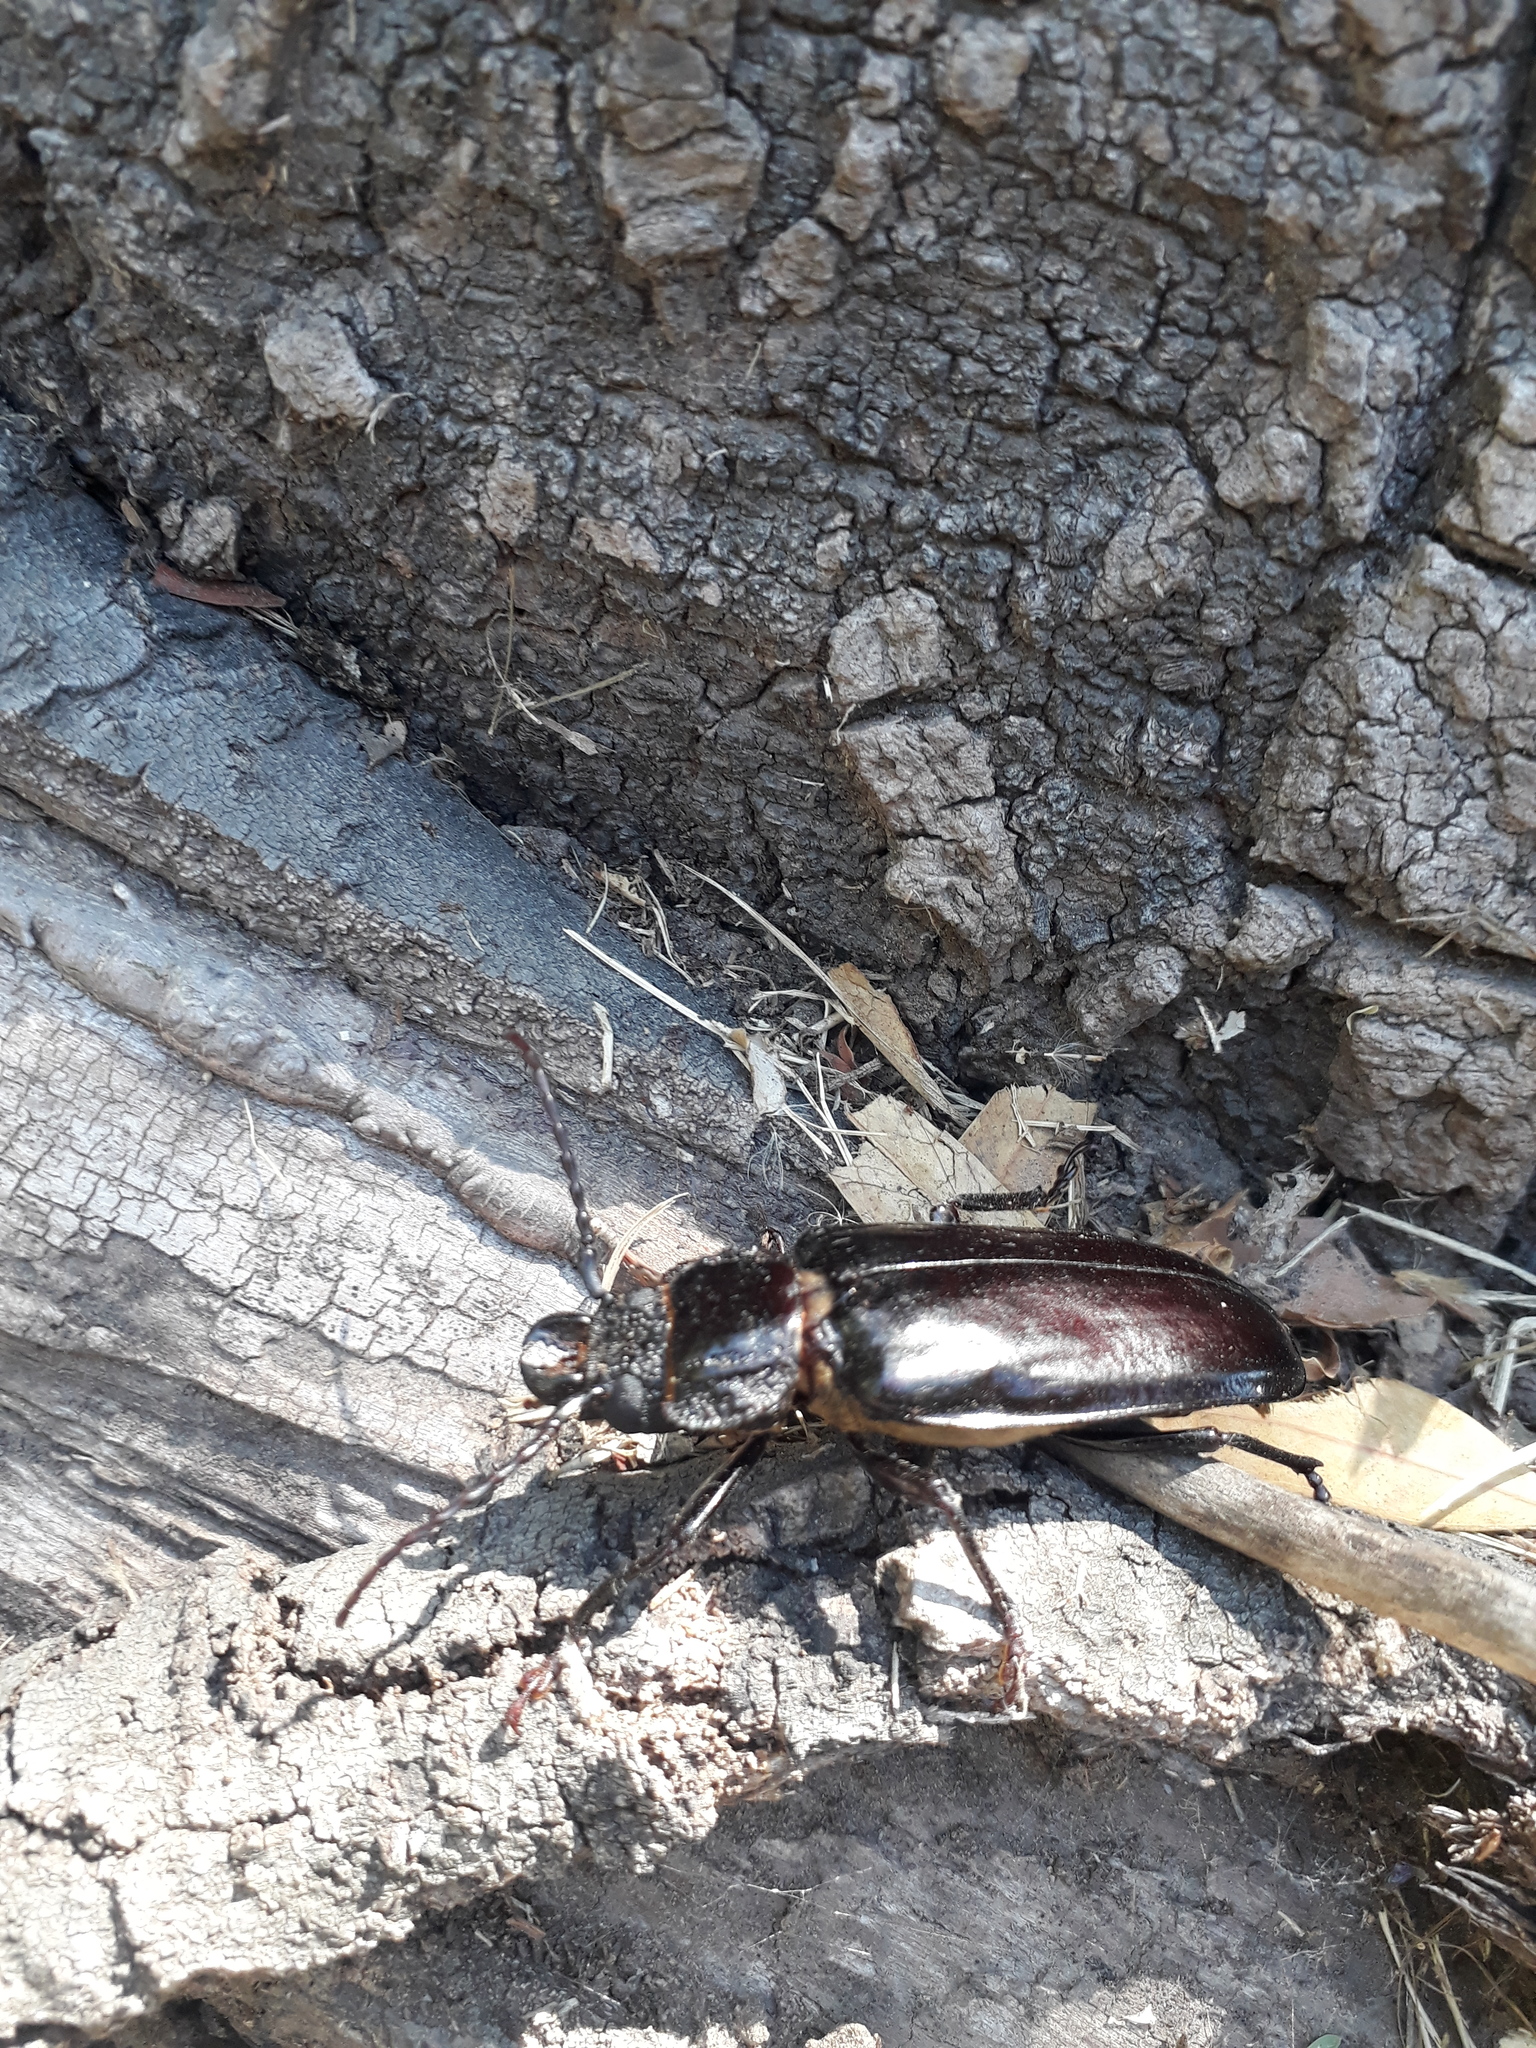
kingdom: Animalia
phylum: Arthropoda
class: Insecta
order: Coleoptera
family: Cerambycidae
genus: Mallodon
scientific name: Mallodon dasystomum
